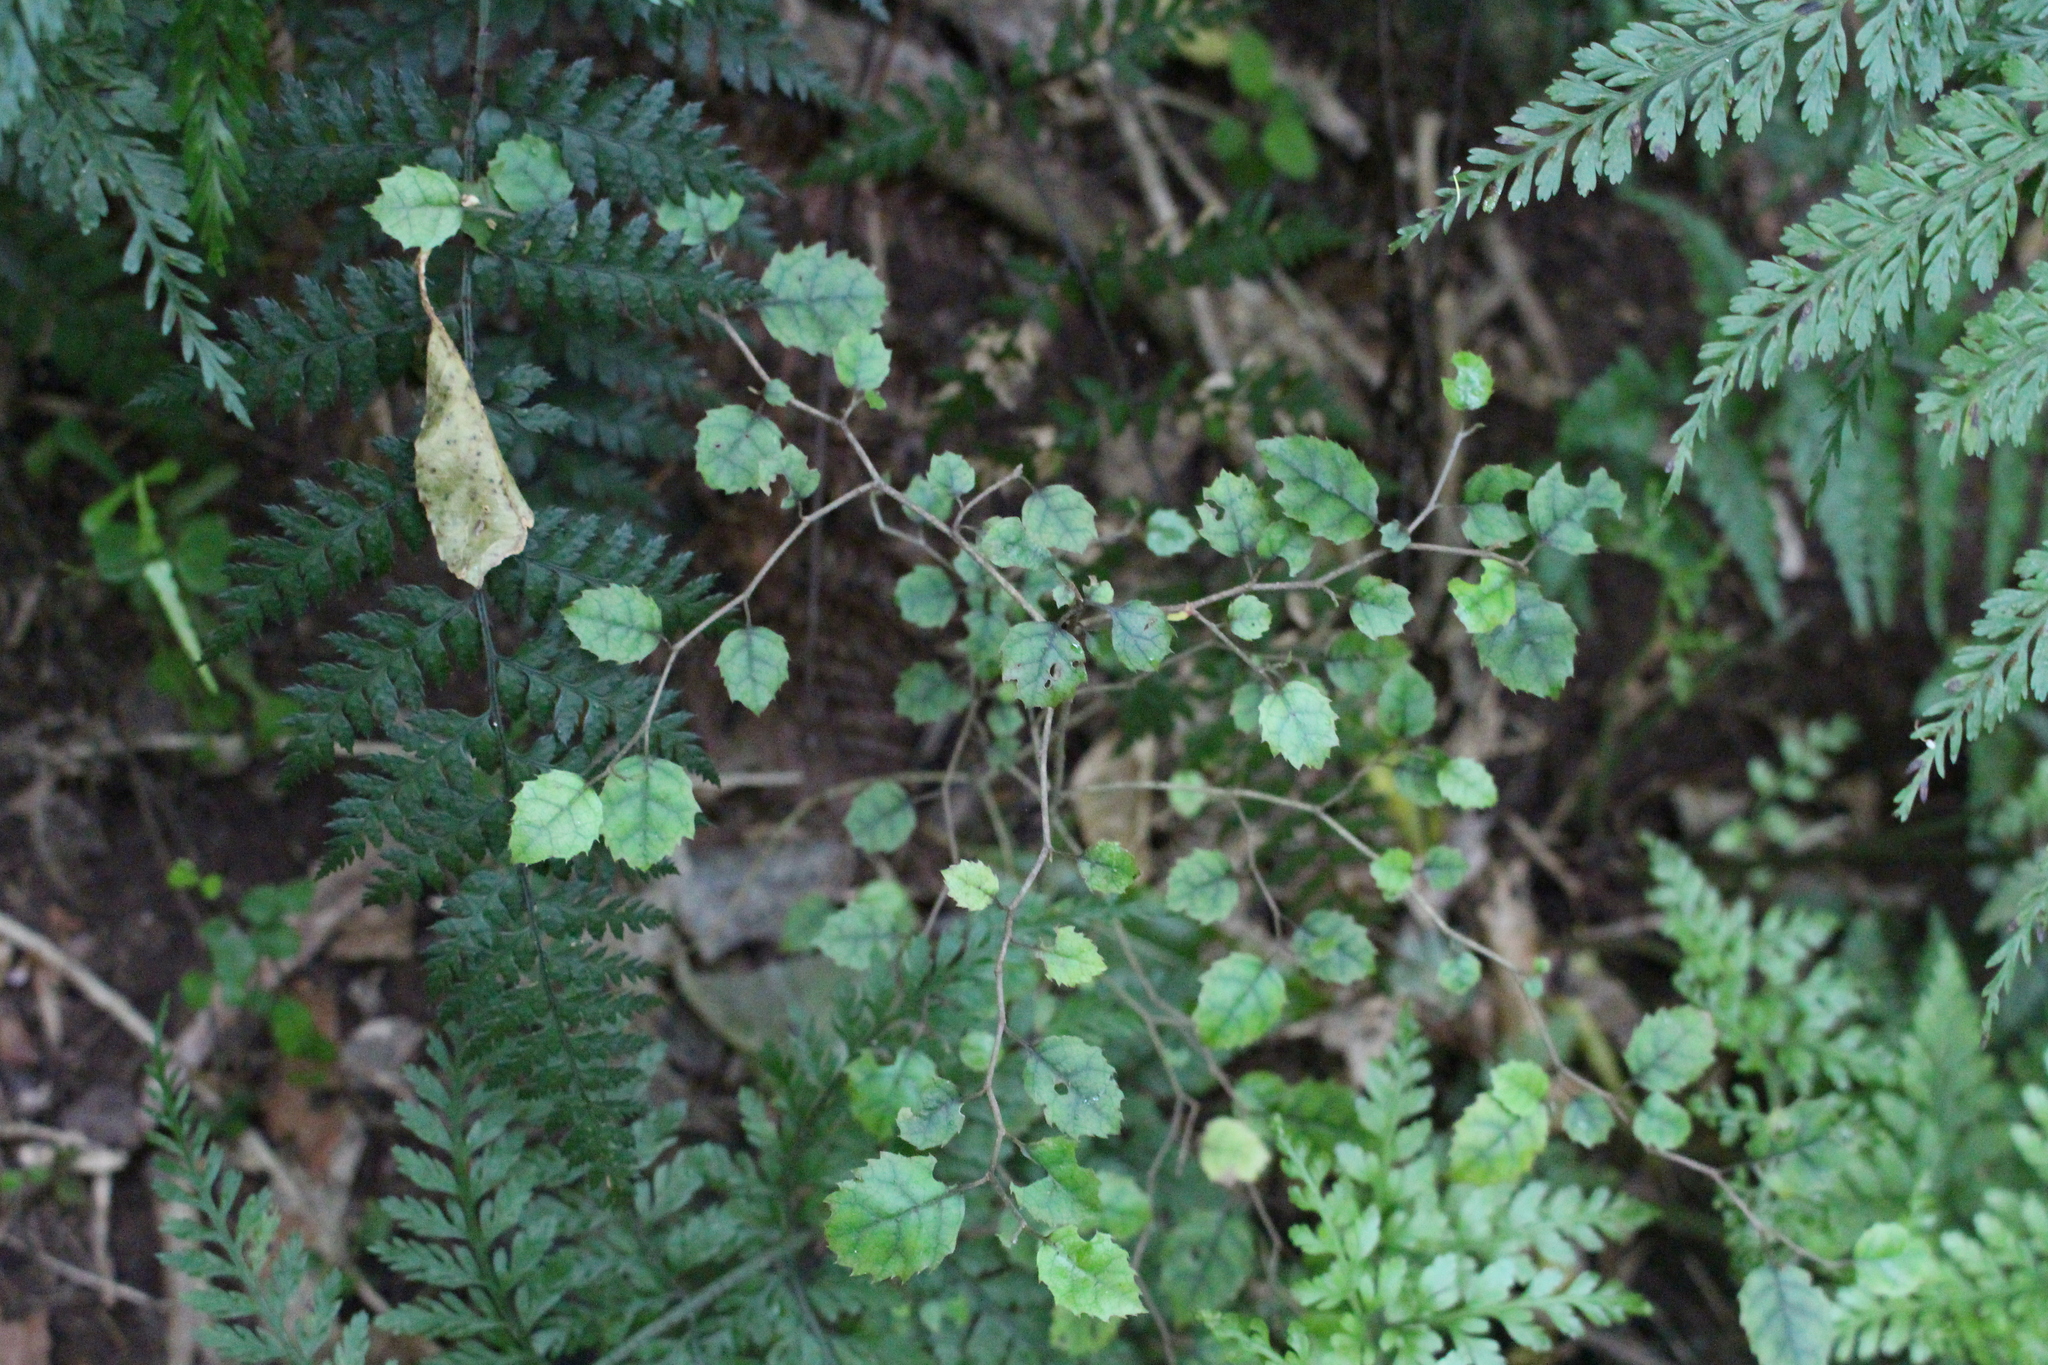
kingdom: Plantae
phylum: Tracheophyta
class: Magnoliopsida
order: Asterales
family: Rousseaceae
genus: Carpodetus
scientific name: Carpodetus serratus
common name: White mapau
